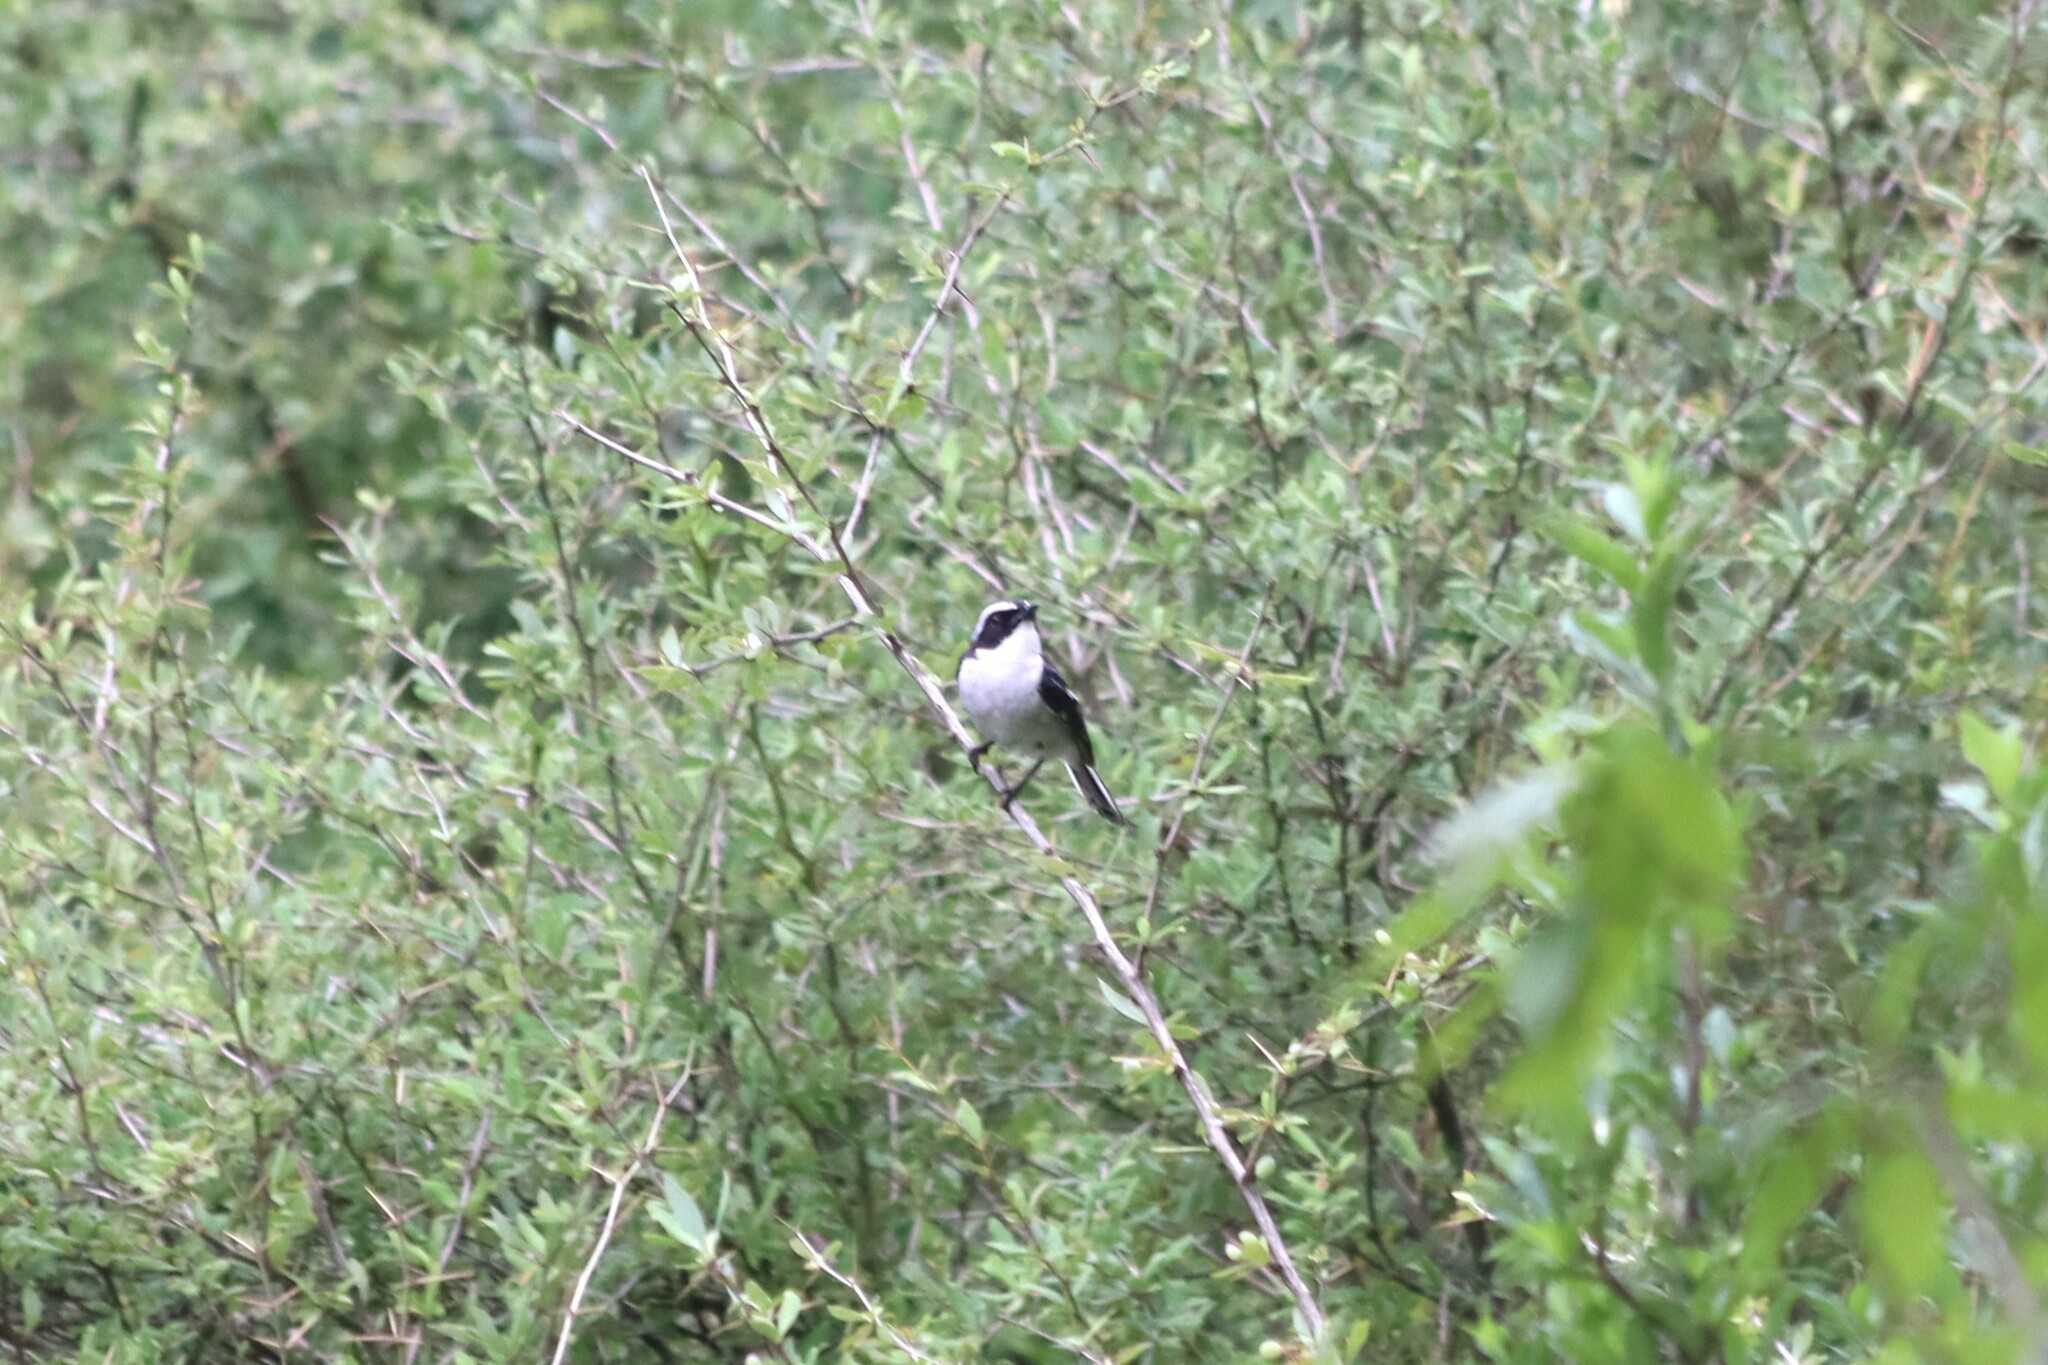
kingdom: Animalia
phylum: Chordata
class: Aves
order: Passeriformes
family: Muscicapidae
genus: Saxicola
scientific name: Saxicola ferreus
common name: Grey bush chat
